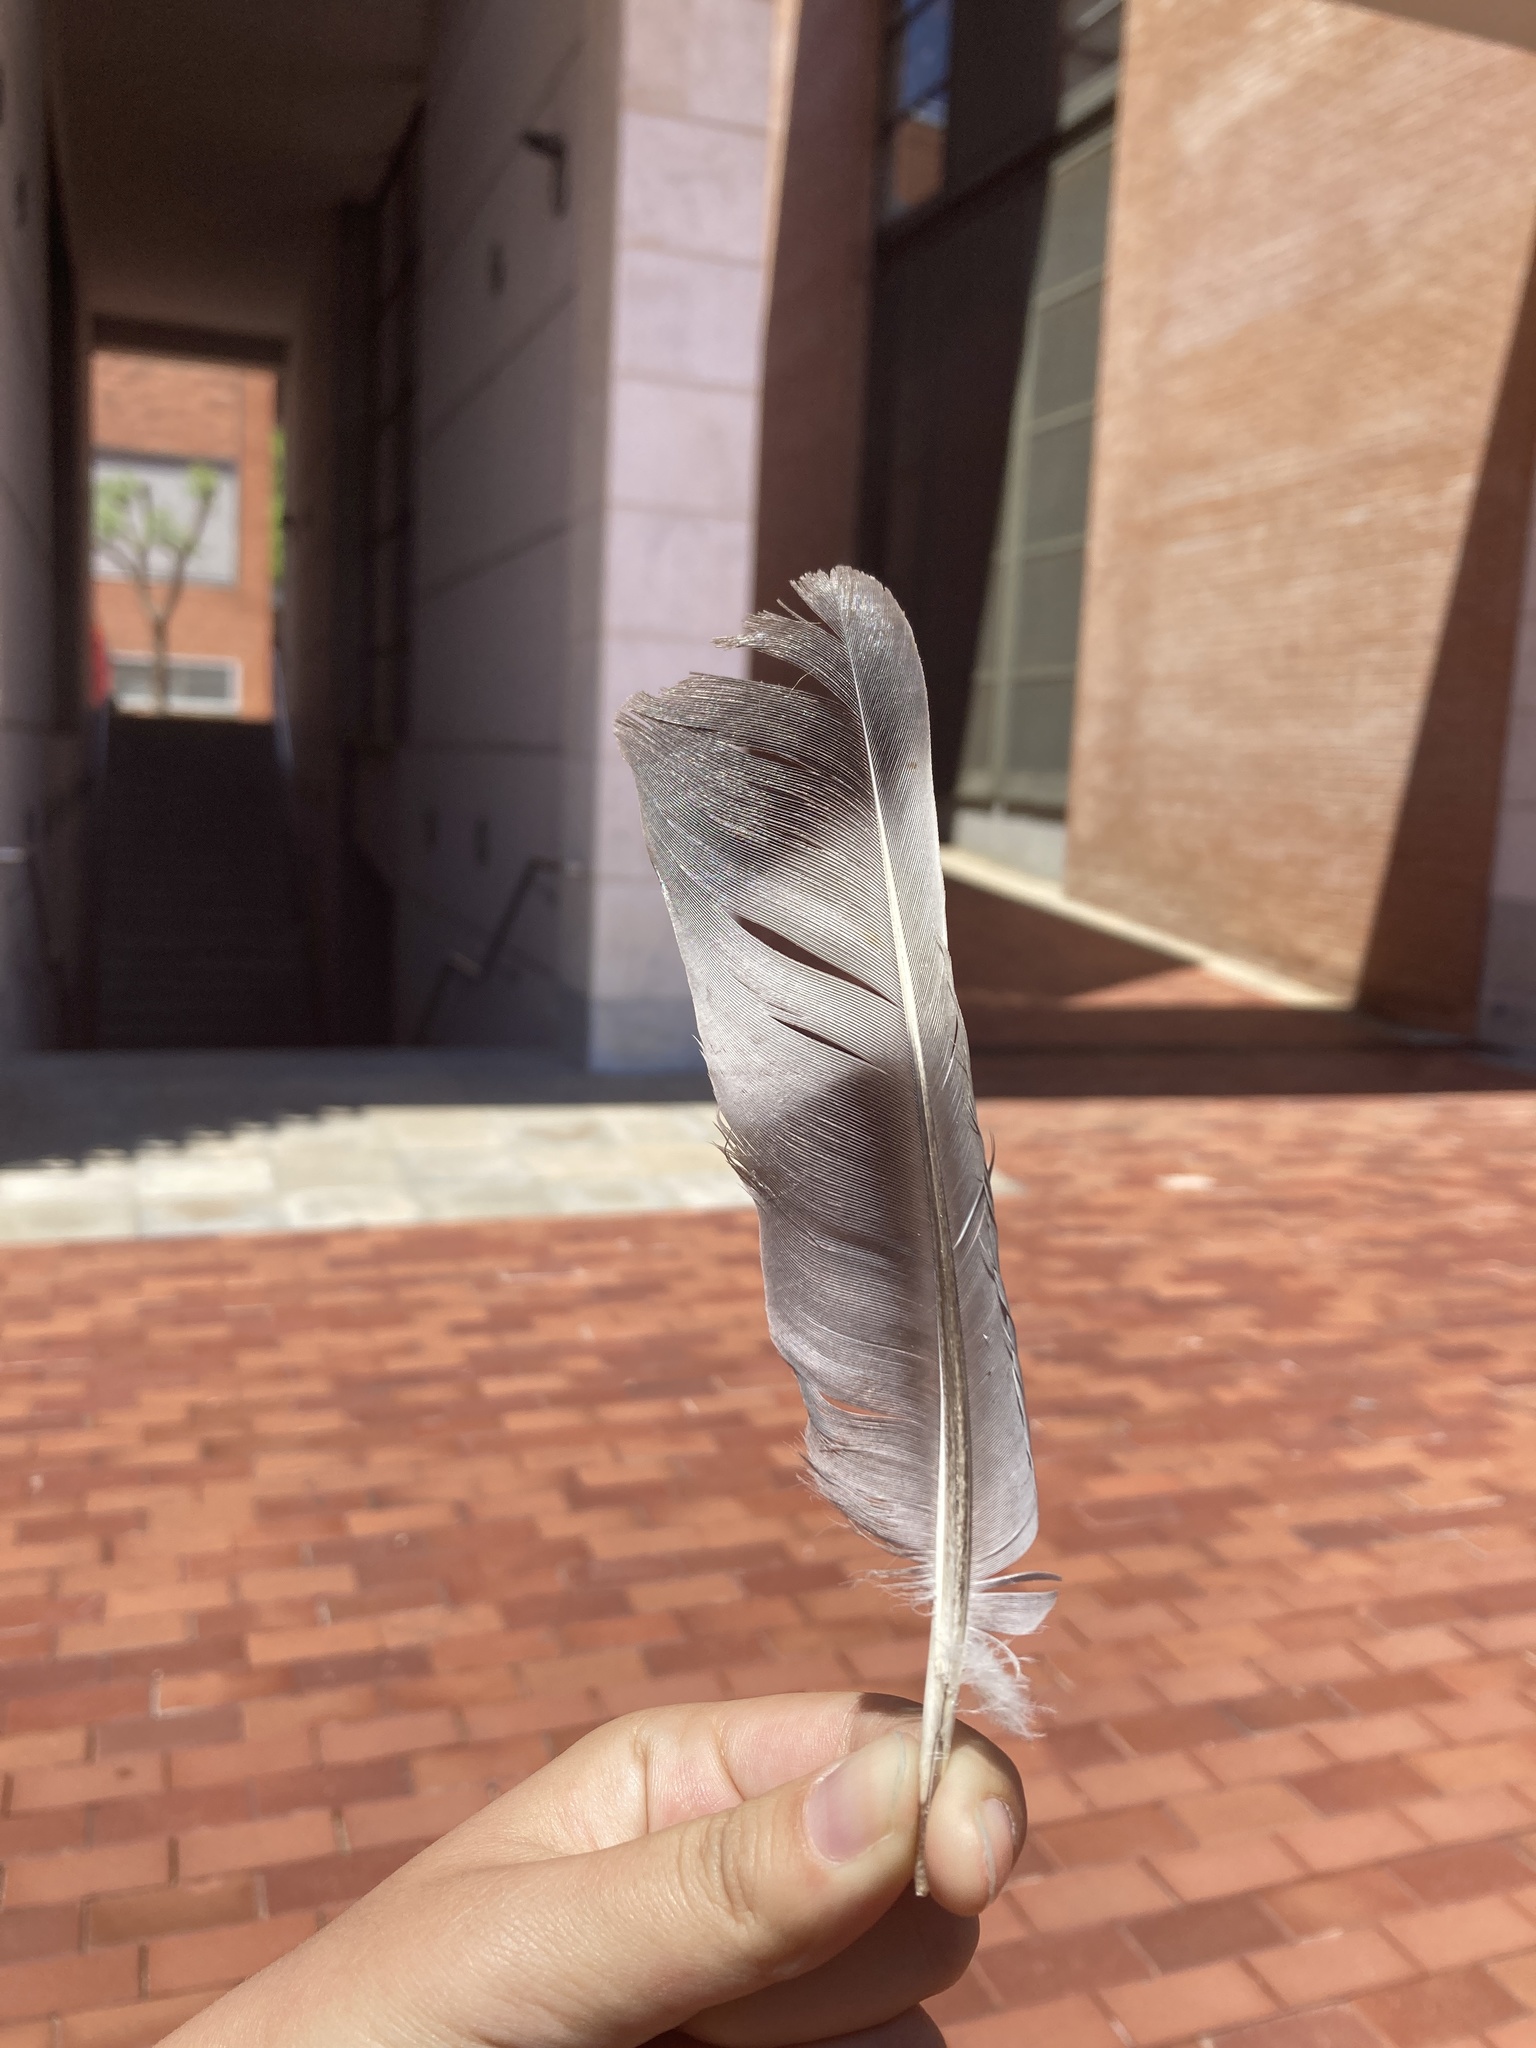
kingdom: Animalia
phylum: Chordata
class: Aves
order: Columbiformes
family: Columbidae
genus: Columba
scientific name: Columba palumbus
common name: Common wood pigeon
